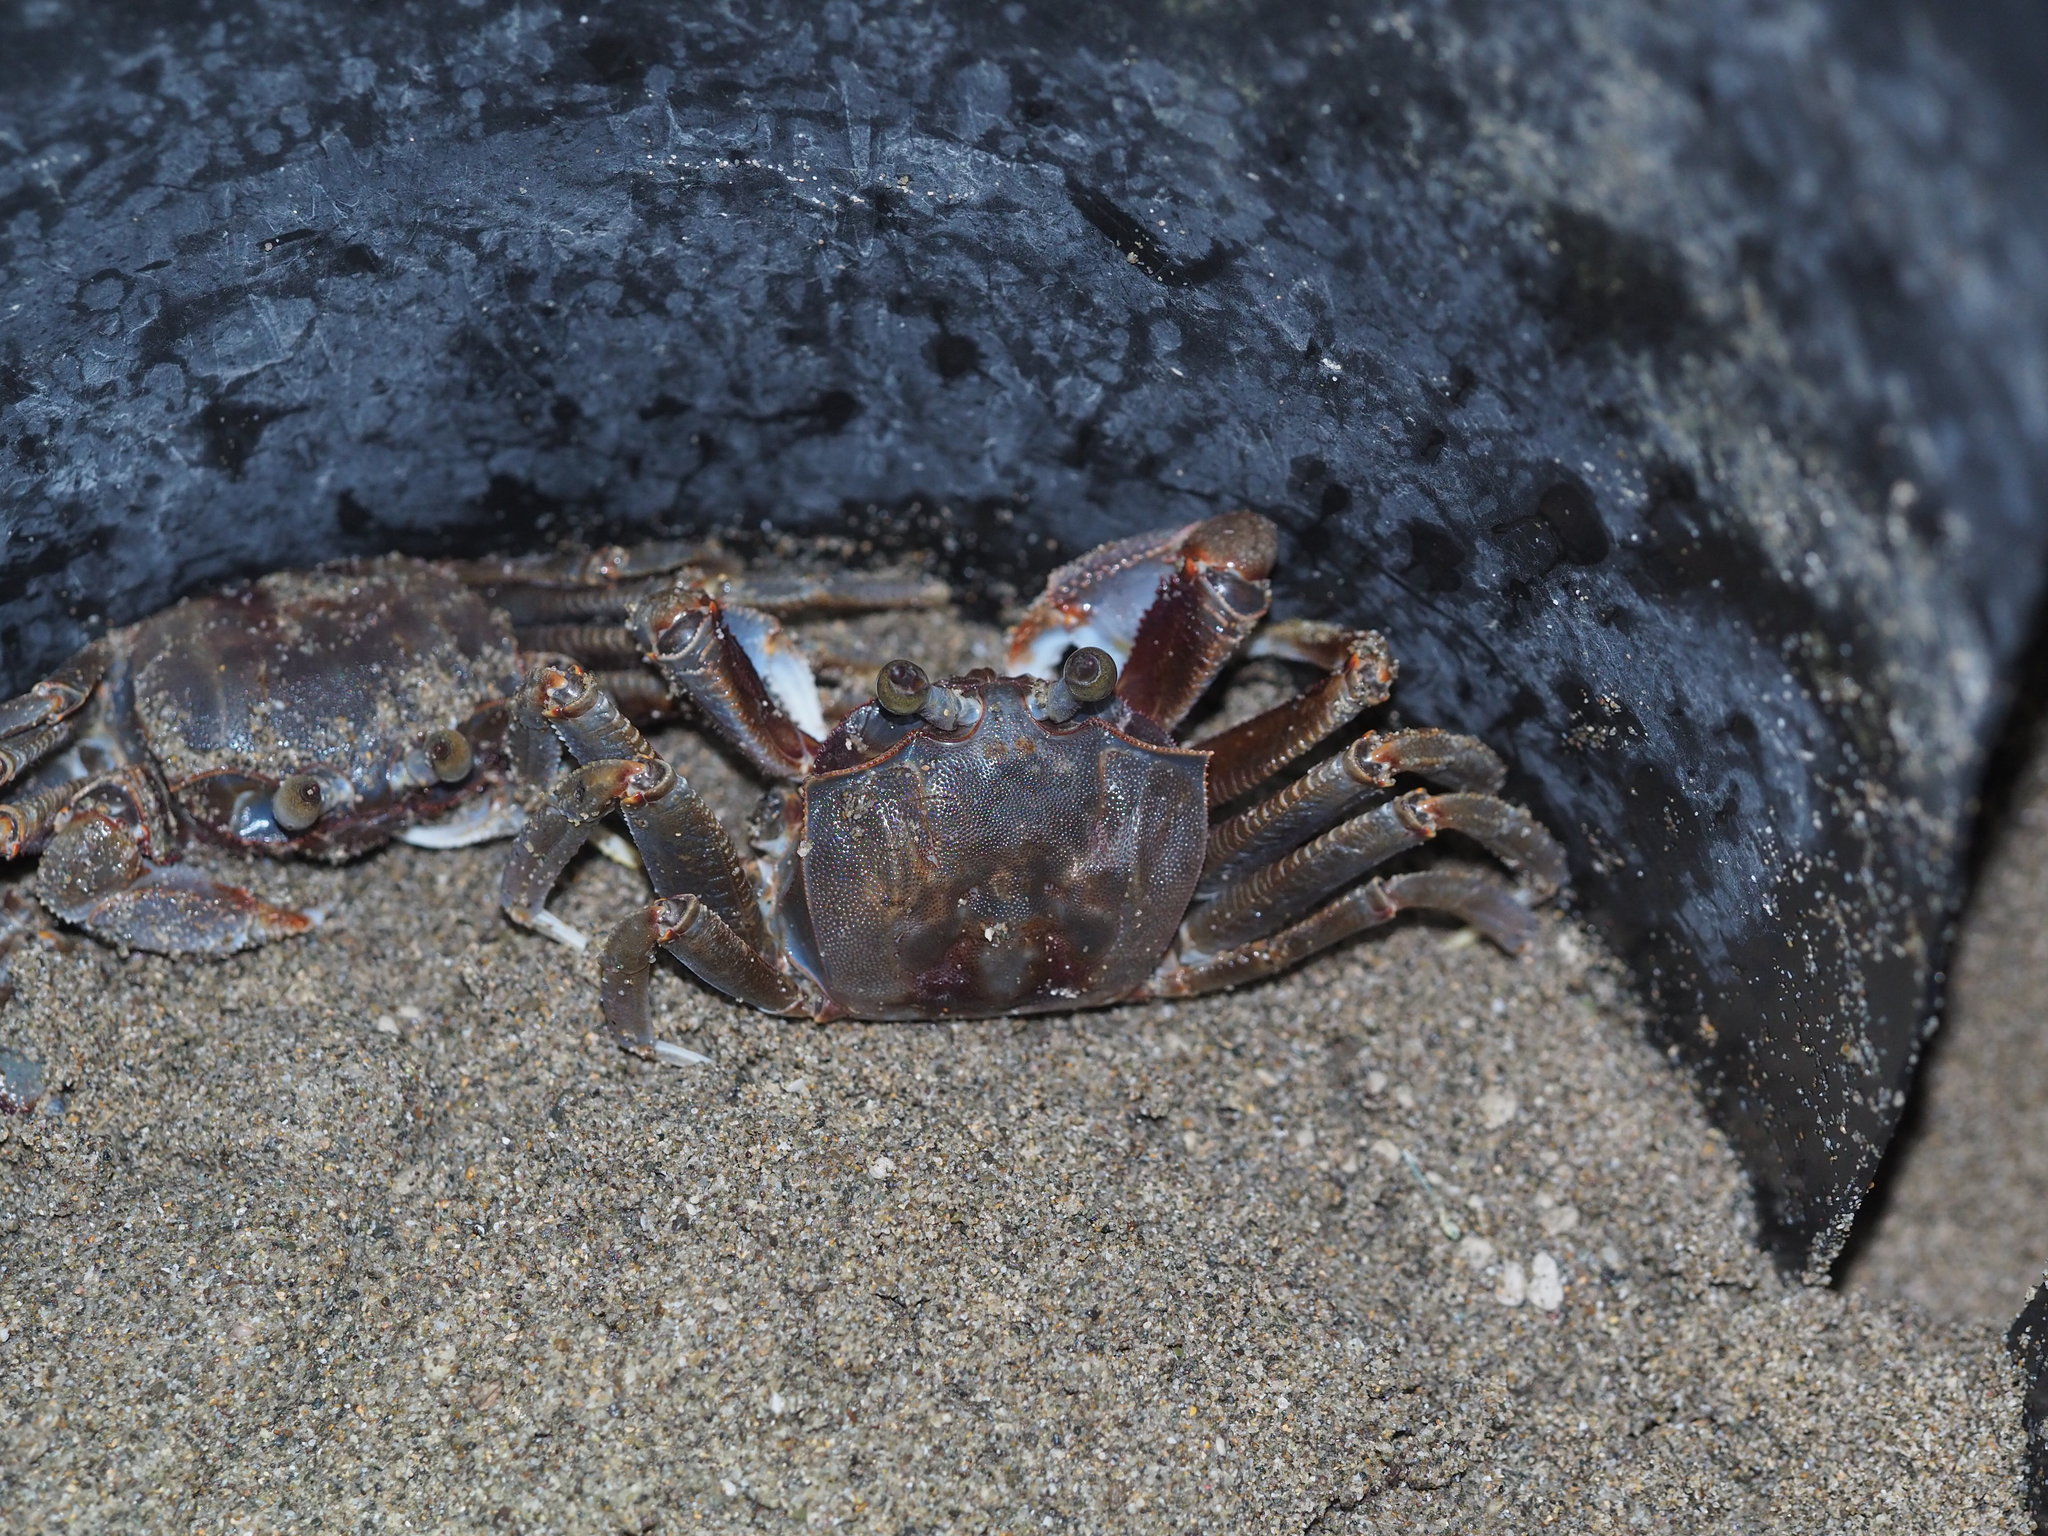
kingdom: Animalia
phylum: Arthropoda
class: Malacostraca
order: Decapoda
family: Ocypodidae
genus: Ocypode
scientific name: Ocypode ceratophthalmus
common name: Indo-pacific ghost crab
